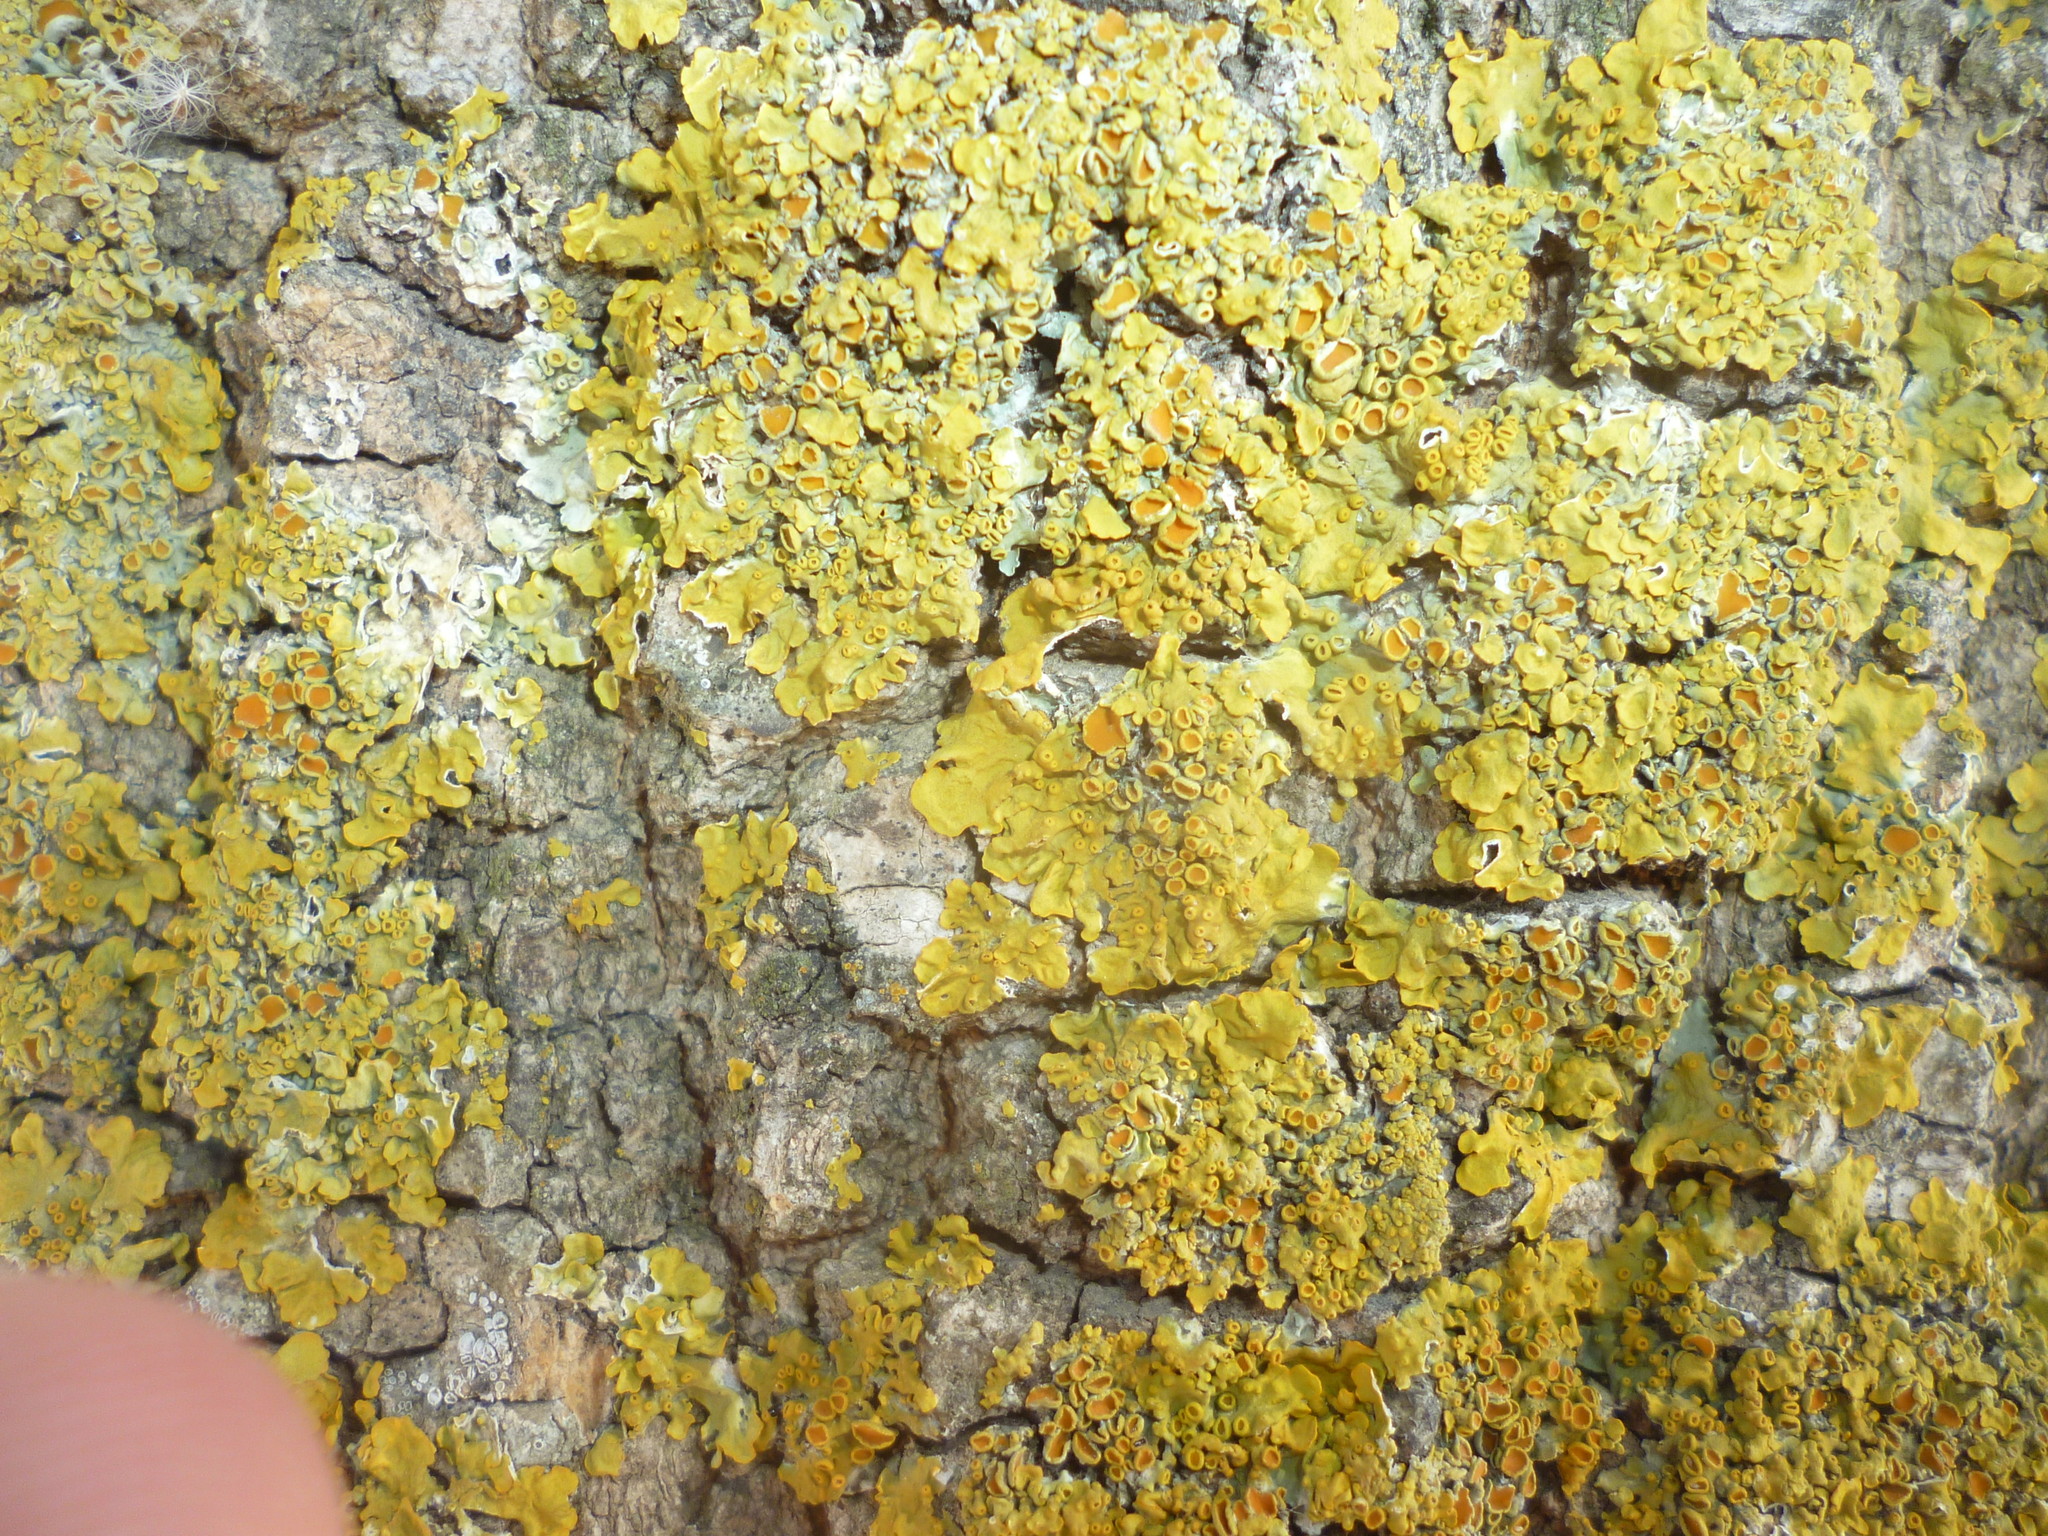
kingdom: Fungi
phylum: Ascomycota
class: Lecanoromycetes
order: Teloschistales
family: Teloschistaceae
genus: Xanthoria
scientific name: Xanthoria parietina
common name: Common orange lichen
